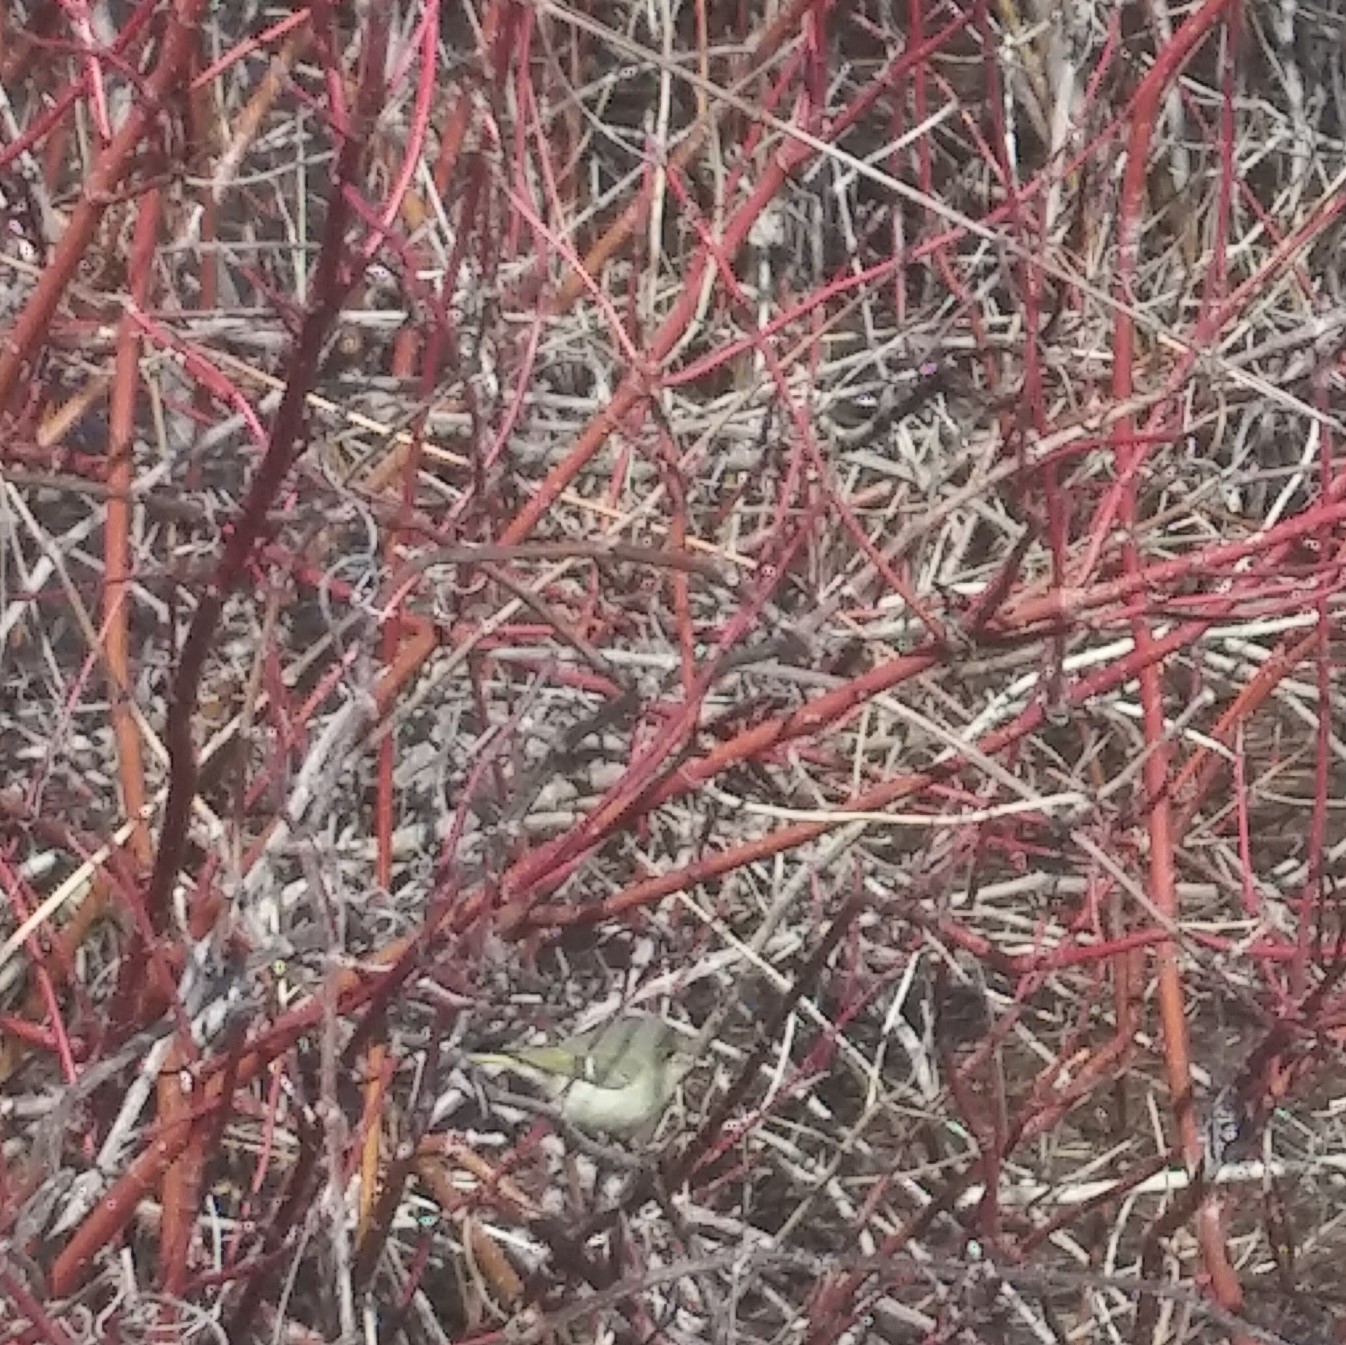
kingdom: Animalia
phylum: Chordata
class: Aves
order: Passeriformes
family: Regulidae
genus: Regulus
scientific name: Regulus calendula
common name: Ruby-crowned kinglet
